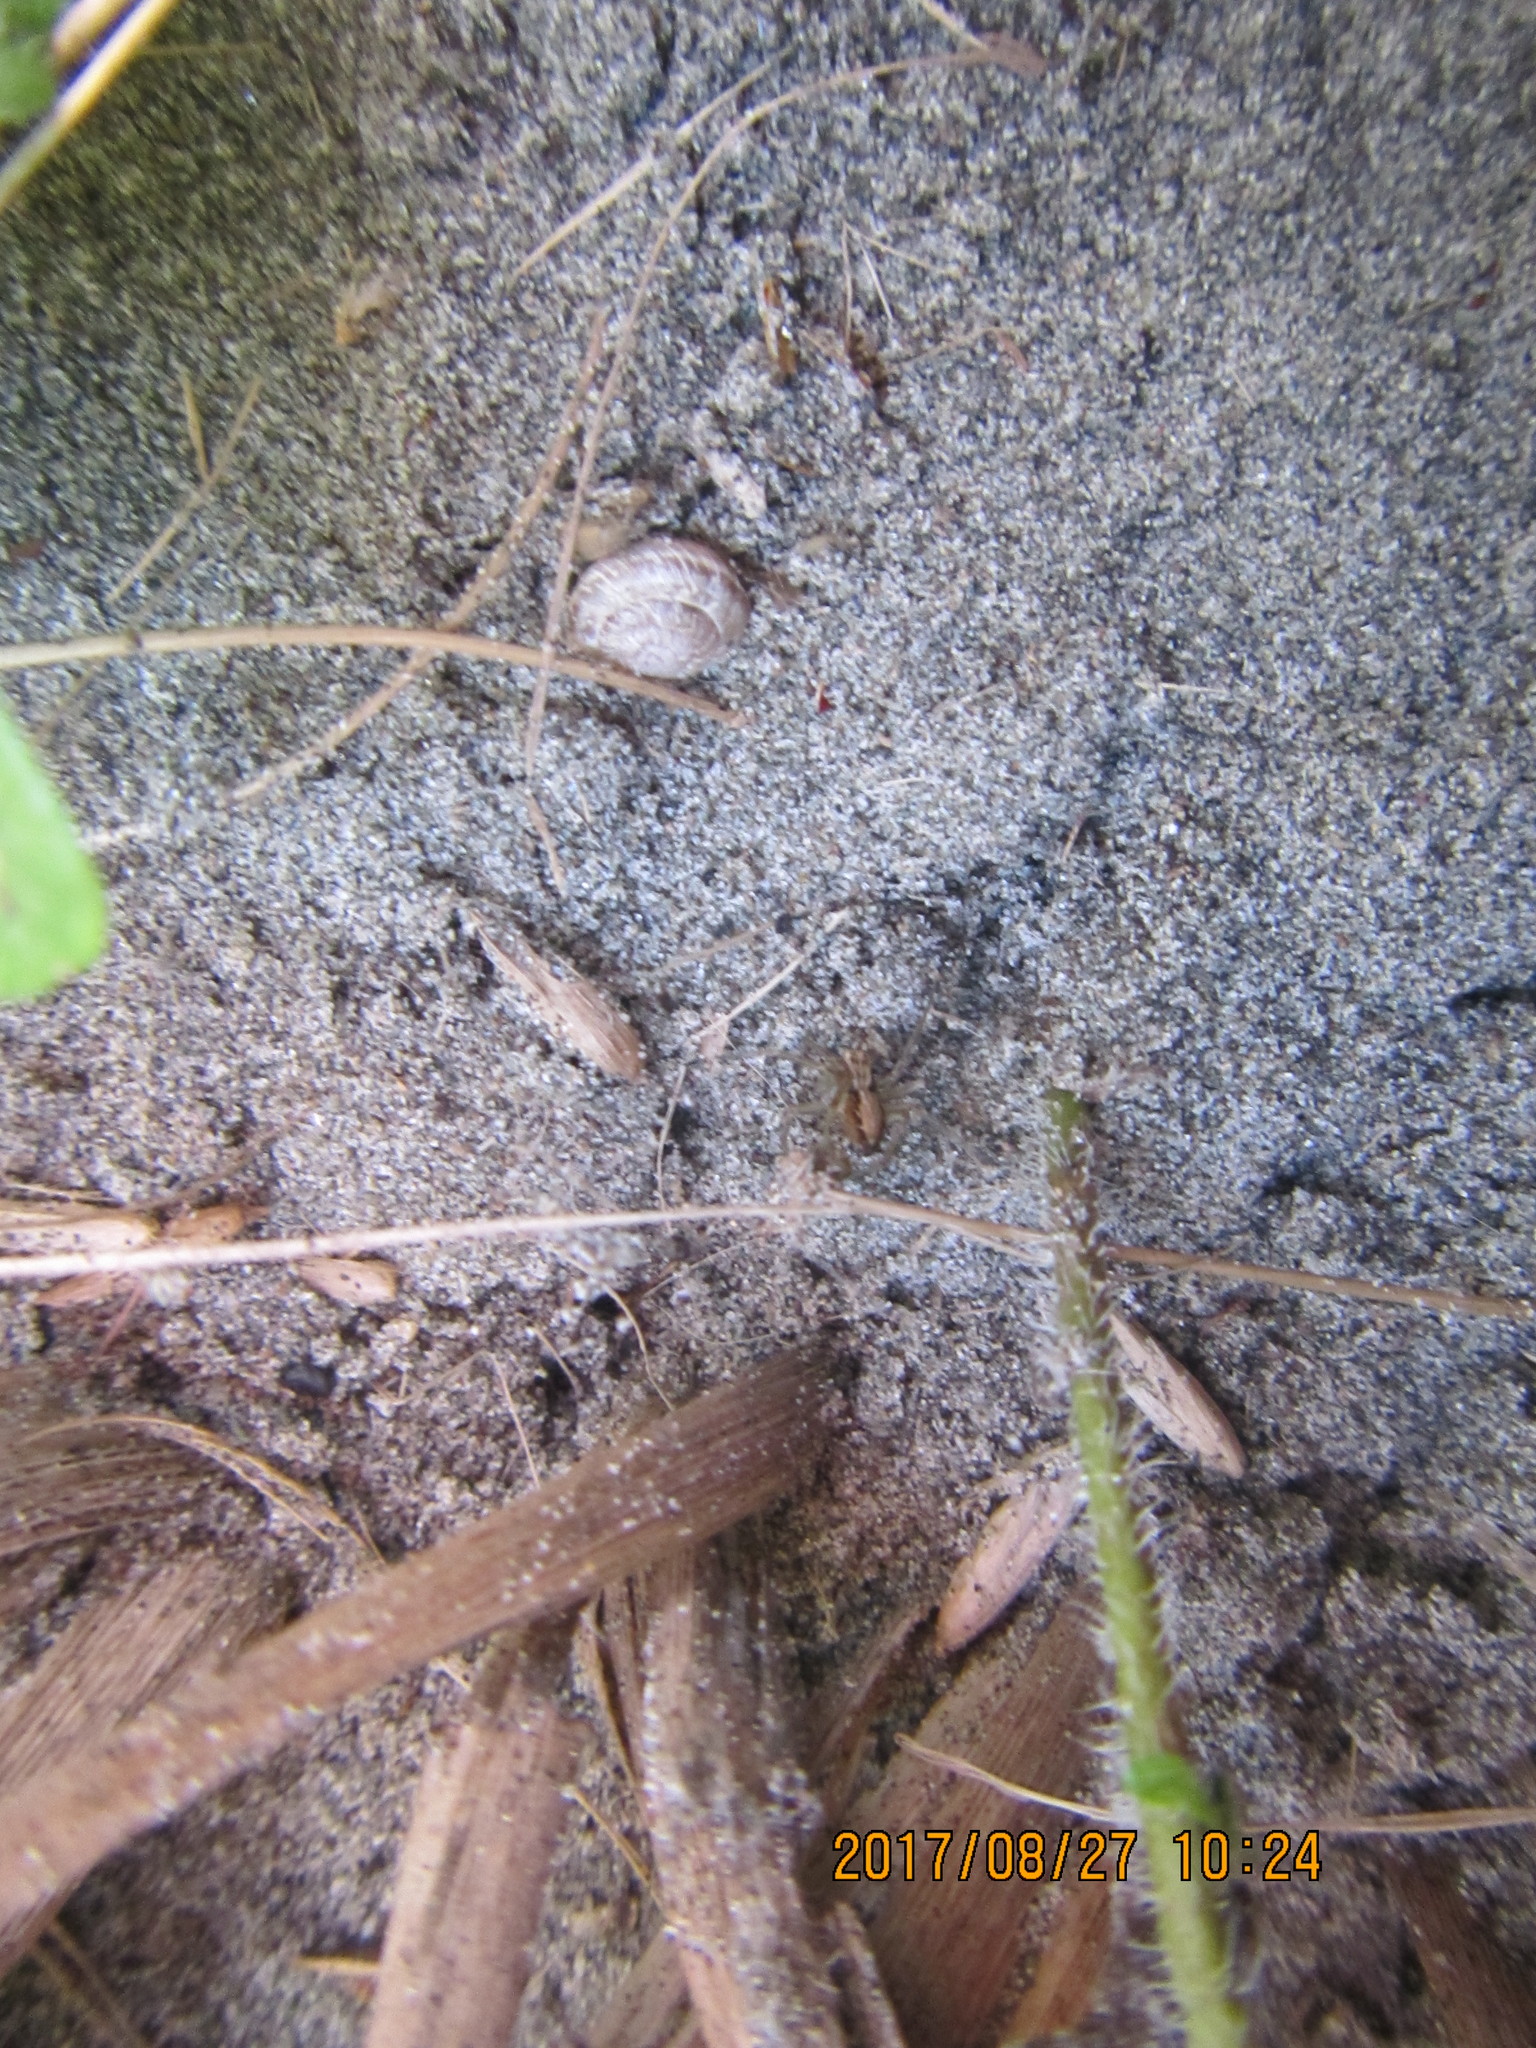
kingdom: Animalia
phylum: Arthropoda
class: Arachnida
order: Araneae
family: Oxyopidae
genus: Oxyopes
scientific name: Oxyopes gracilipes
